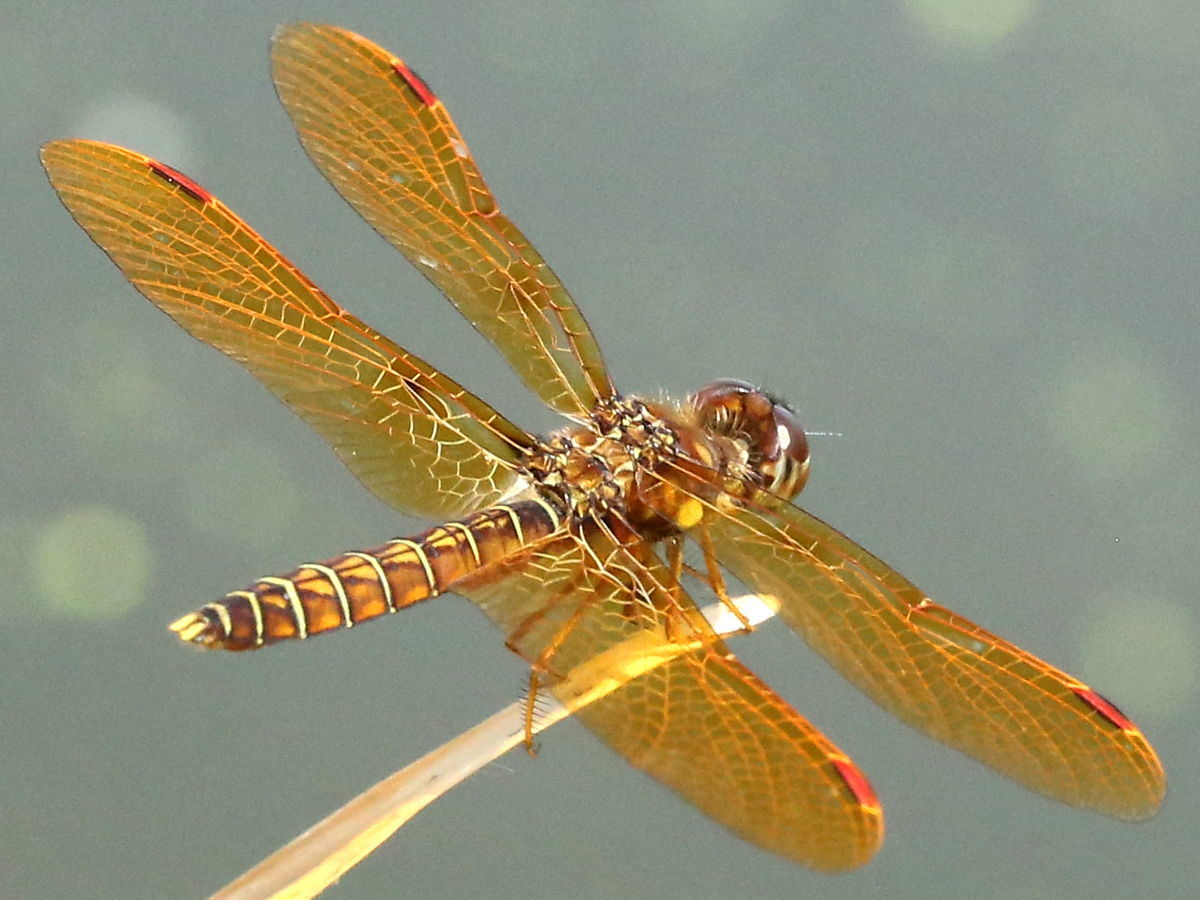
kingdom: Animalia
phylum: Arthropoda
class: Insecta
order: Odonata
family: Libellulidae
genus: Perithemis
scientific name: Perithemis tenera
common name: Eastern amberwing
